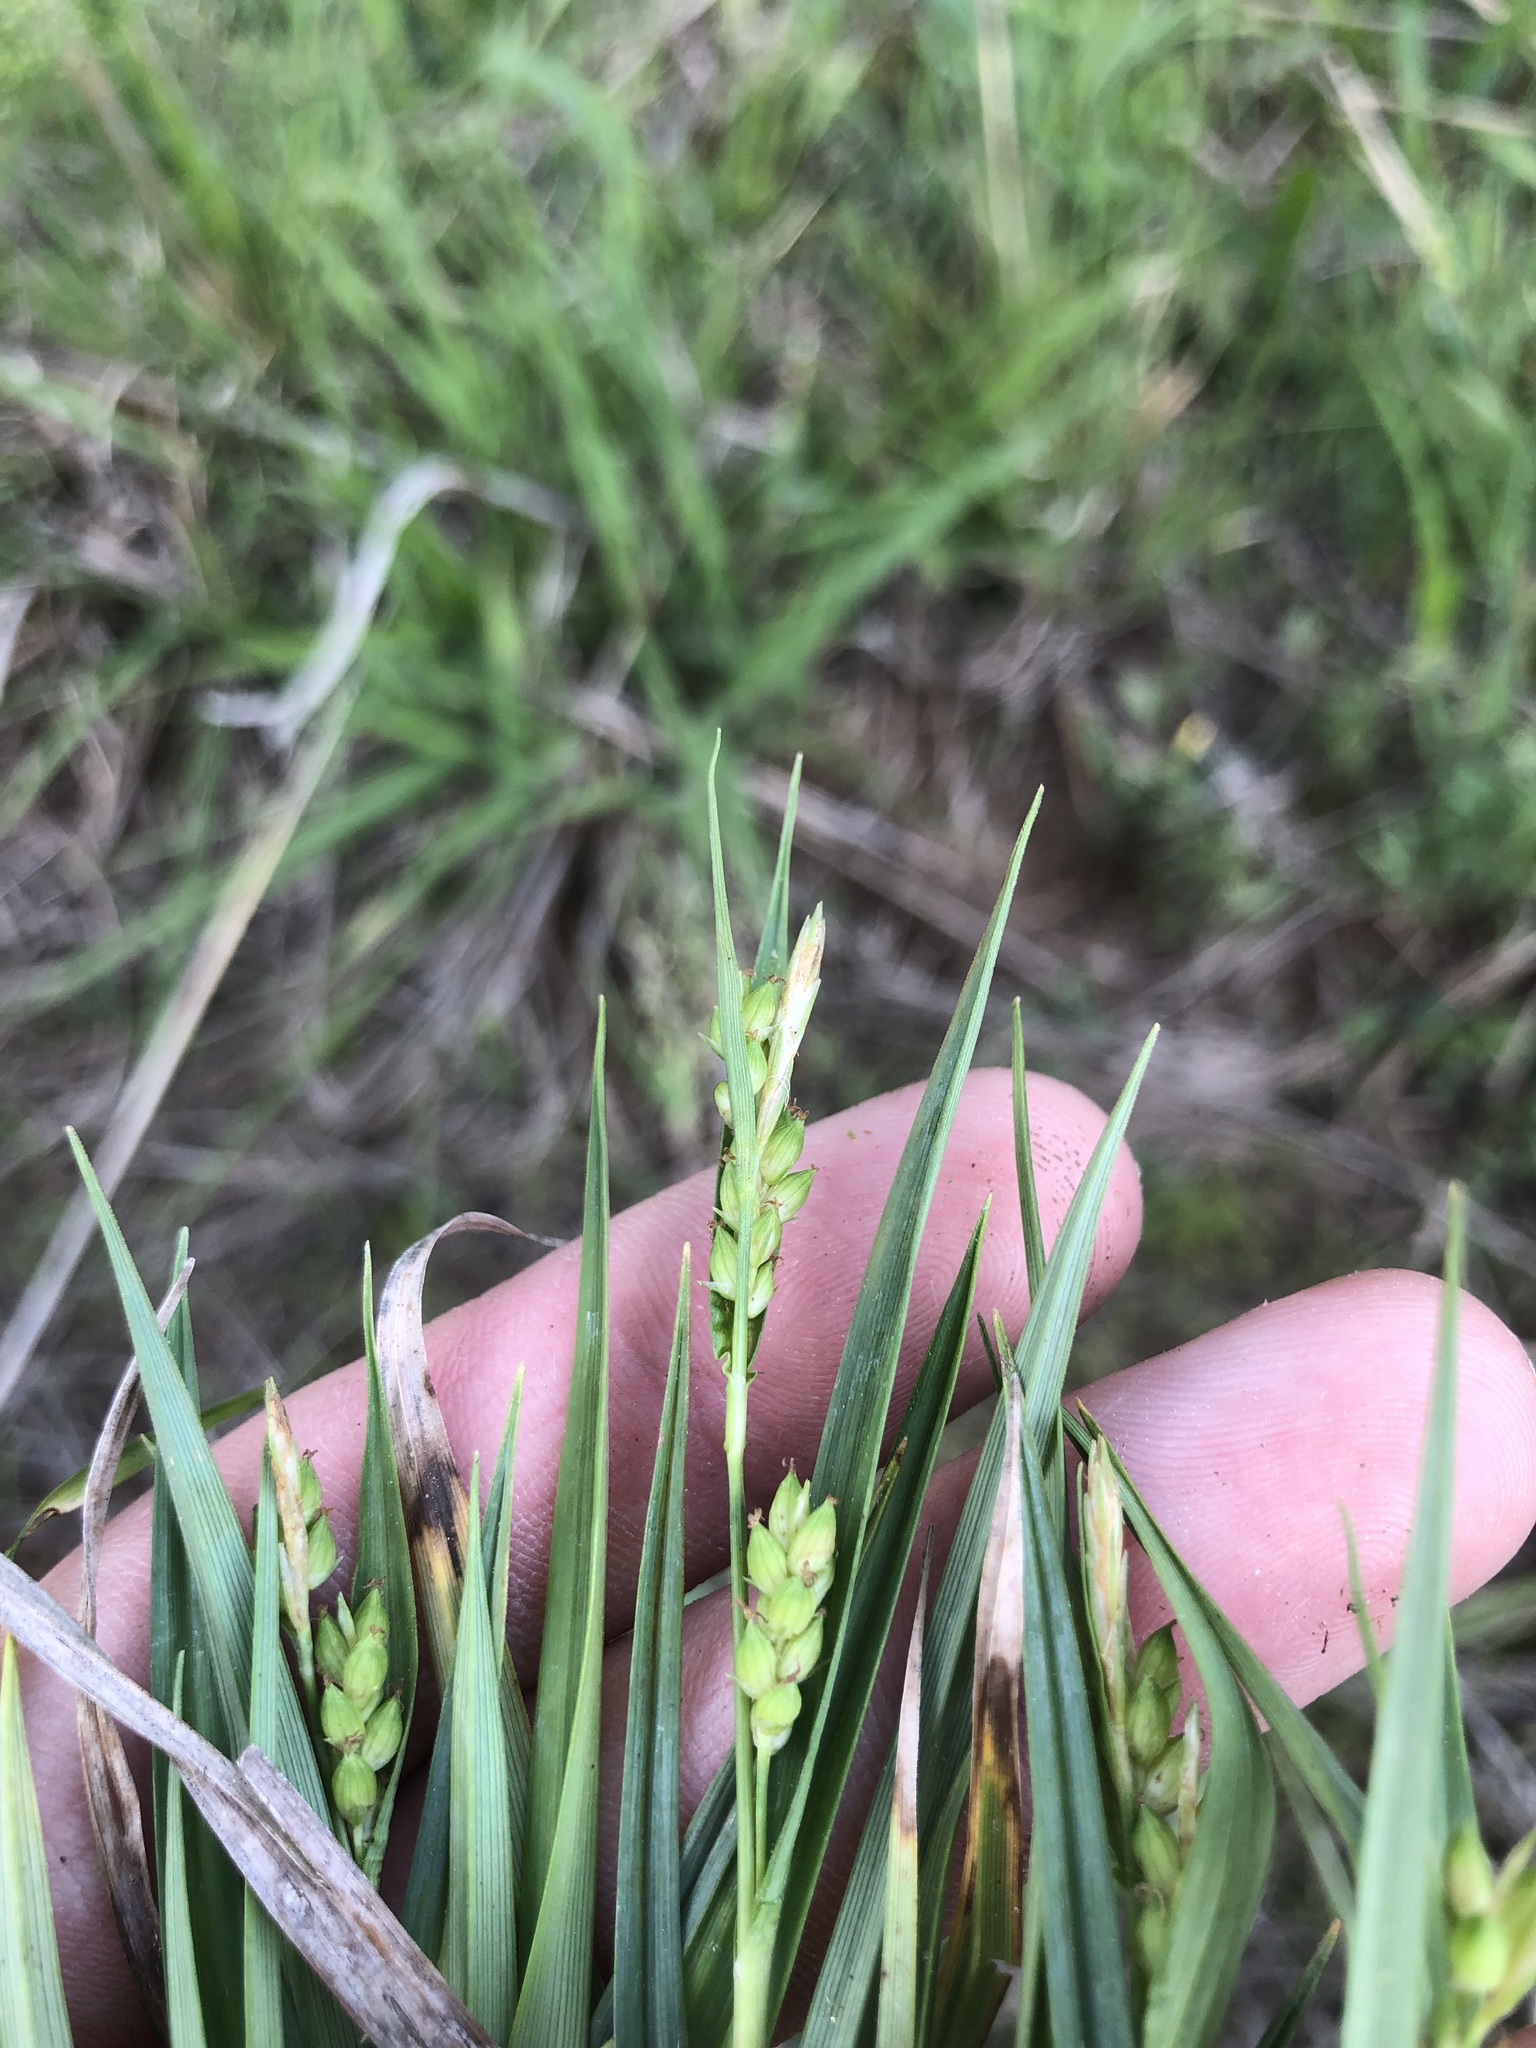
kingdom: Plantae
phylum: Tracheophyta
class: Liliopsida
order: Poales
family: Cyperaceae
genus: Carex
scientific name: Carex glaucodea
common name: Blue sedge
